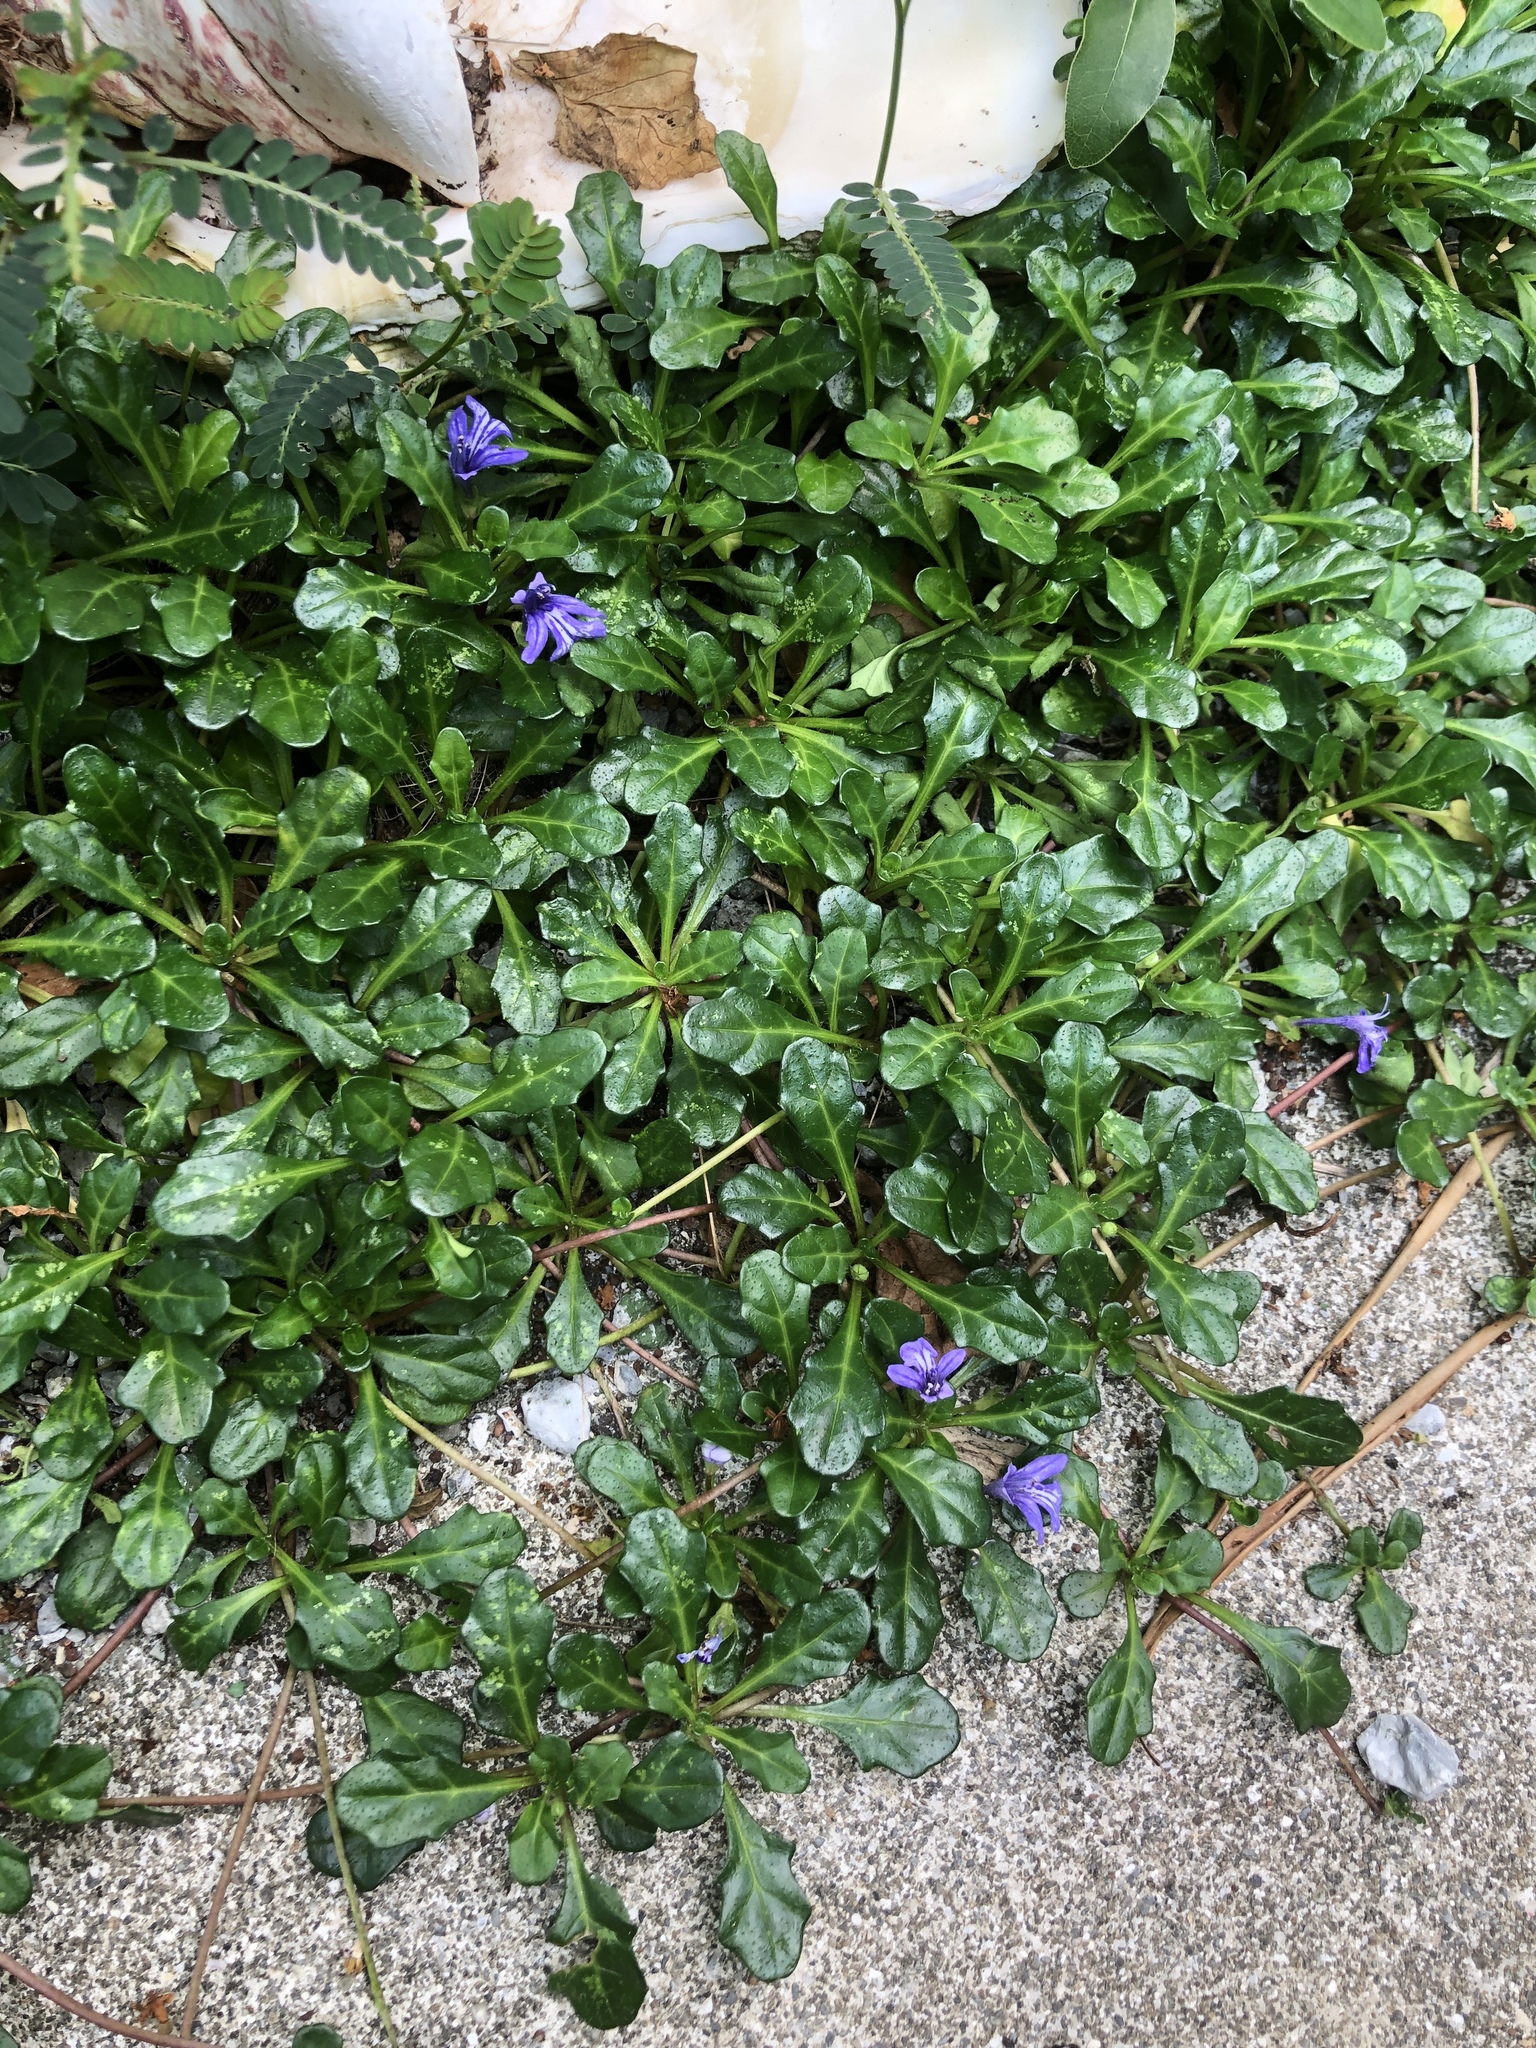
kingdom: Plantae
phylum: Tracheophyta
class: Magnoliopsida
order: Lamiales
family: Lamiaceae
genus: Ajuga
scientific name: Ajuga pygmaea
